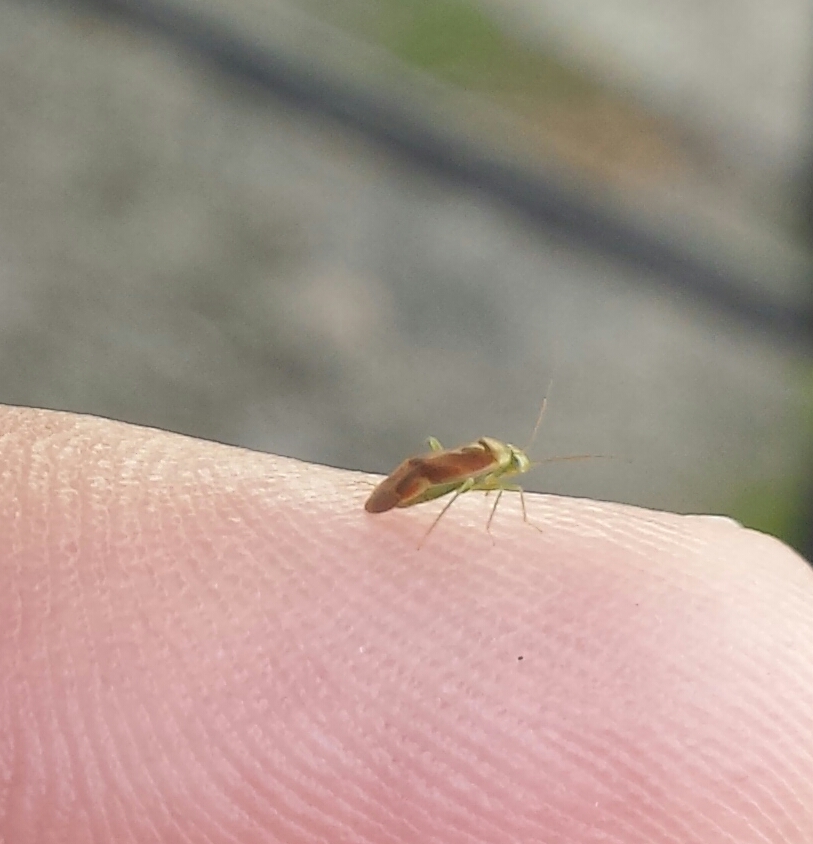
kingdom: Animalia
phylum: Arthropoda
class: Insecta
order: Hemiptera
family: Miridae
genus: Dichrooscytus
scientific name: Dichrooscytus
